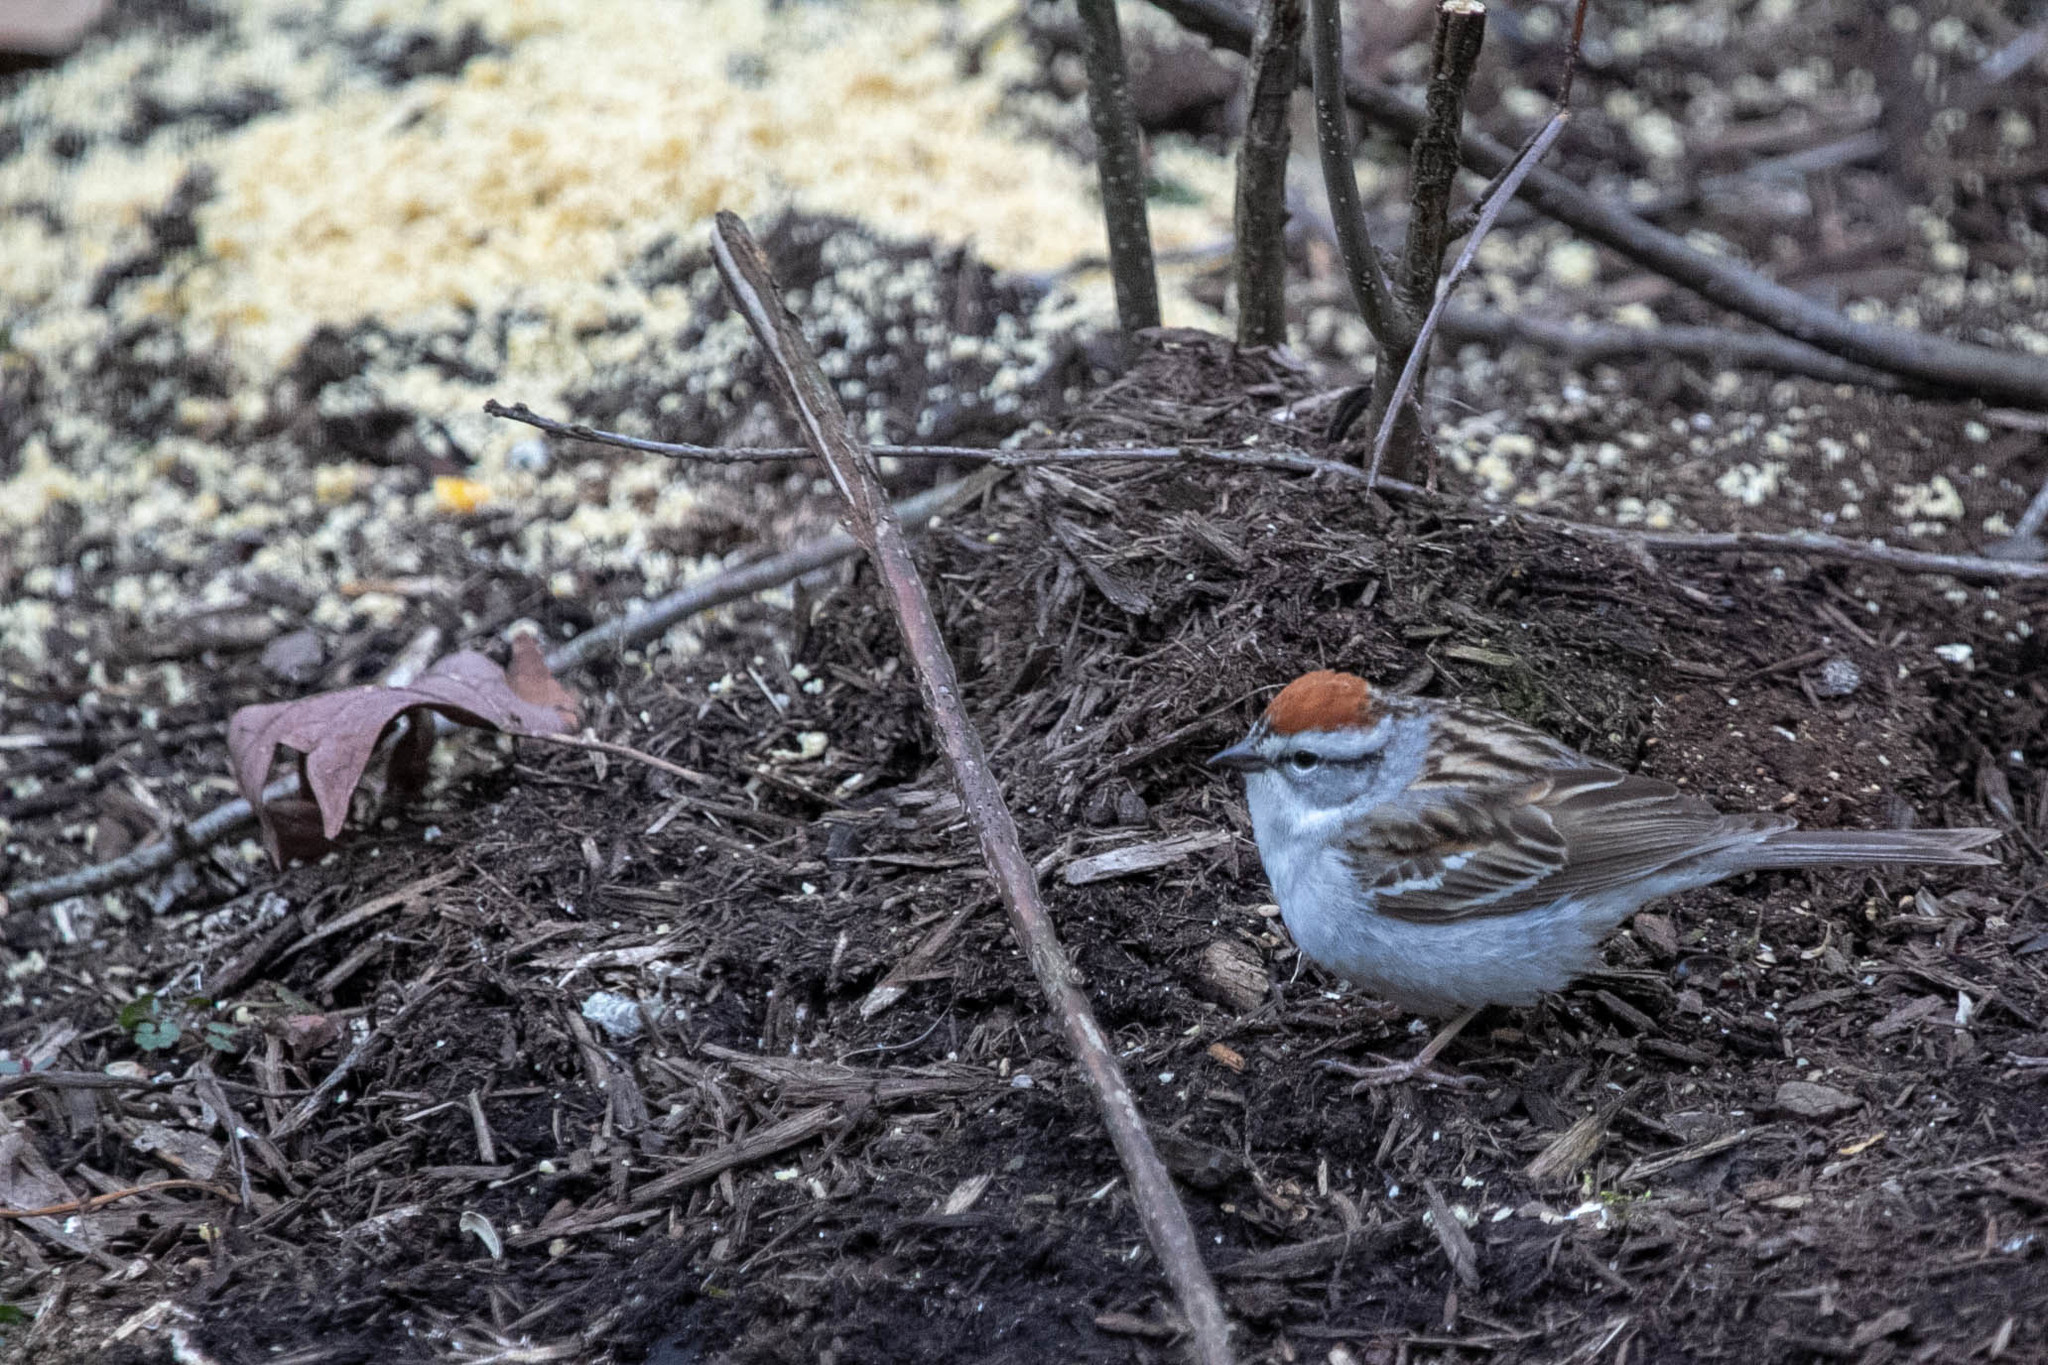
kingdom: Animalia
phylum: Chordata
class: Aves
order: Passeriformes
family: Passerellidae
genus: Spizella
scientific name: Spizella passerina
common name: Chipping sparrow
